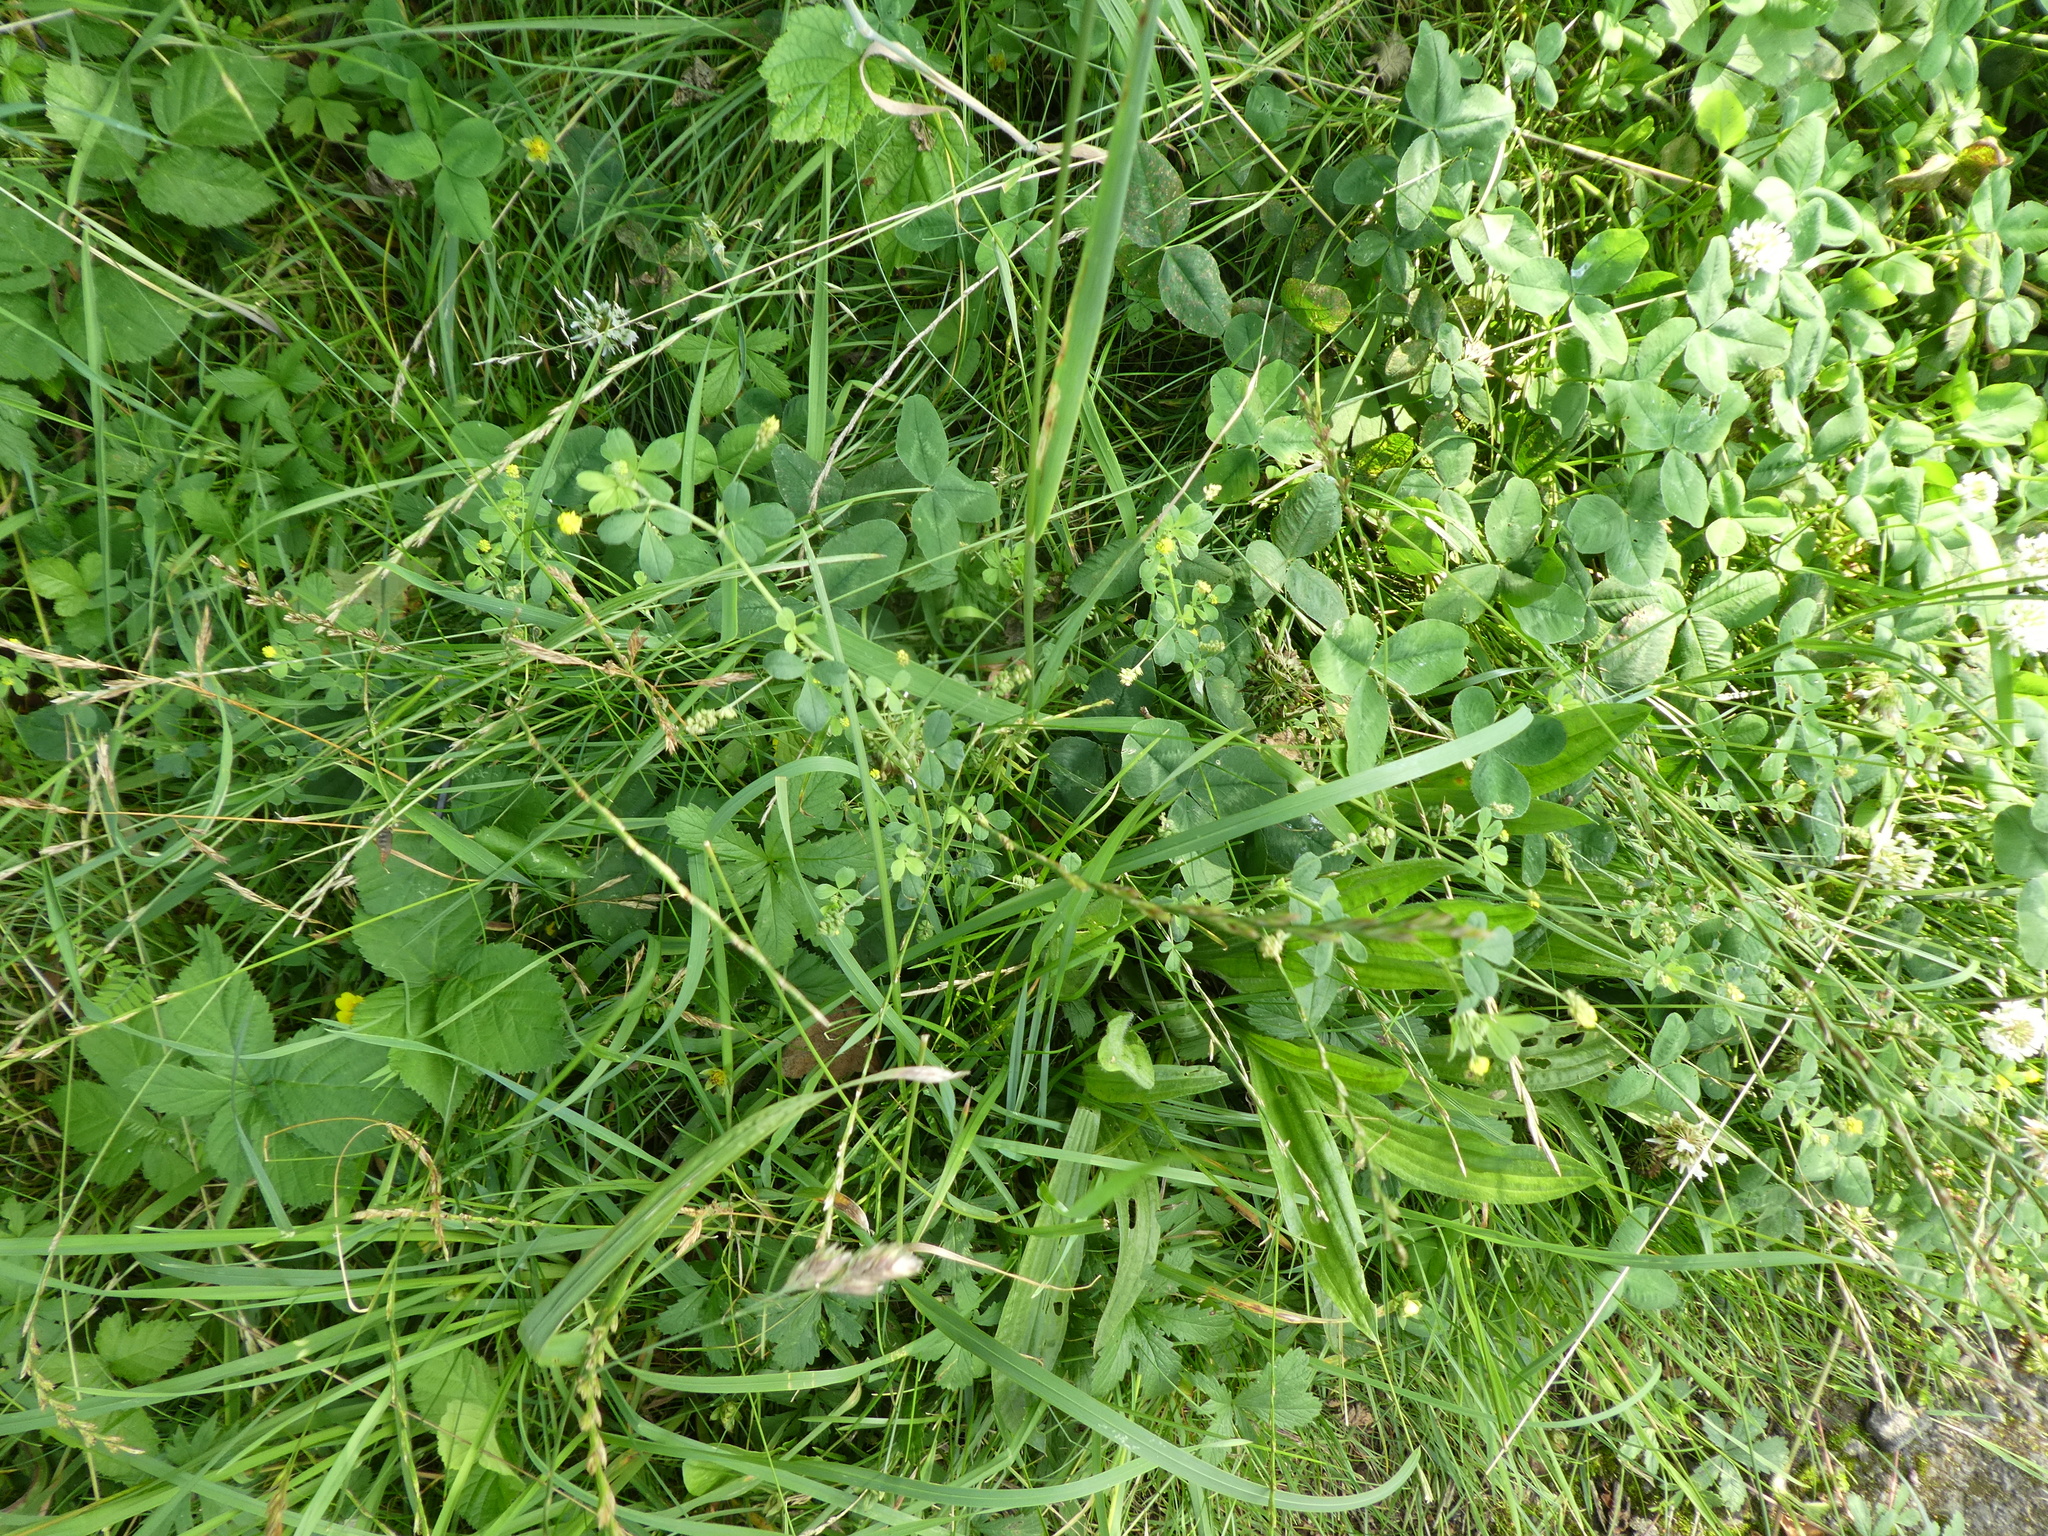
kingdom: Plantae
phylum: Tracheophyta
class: Magnoliopsida
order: Fabales
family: Fabaceae
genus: Medicago
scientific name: Medicago lupulina
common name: Black medick
